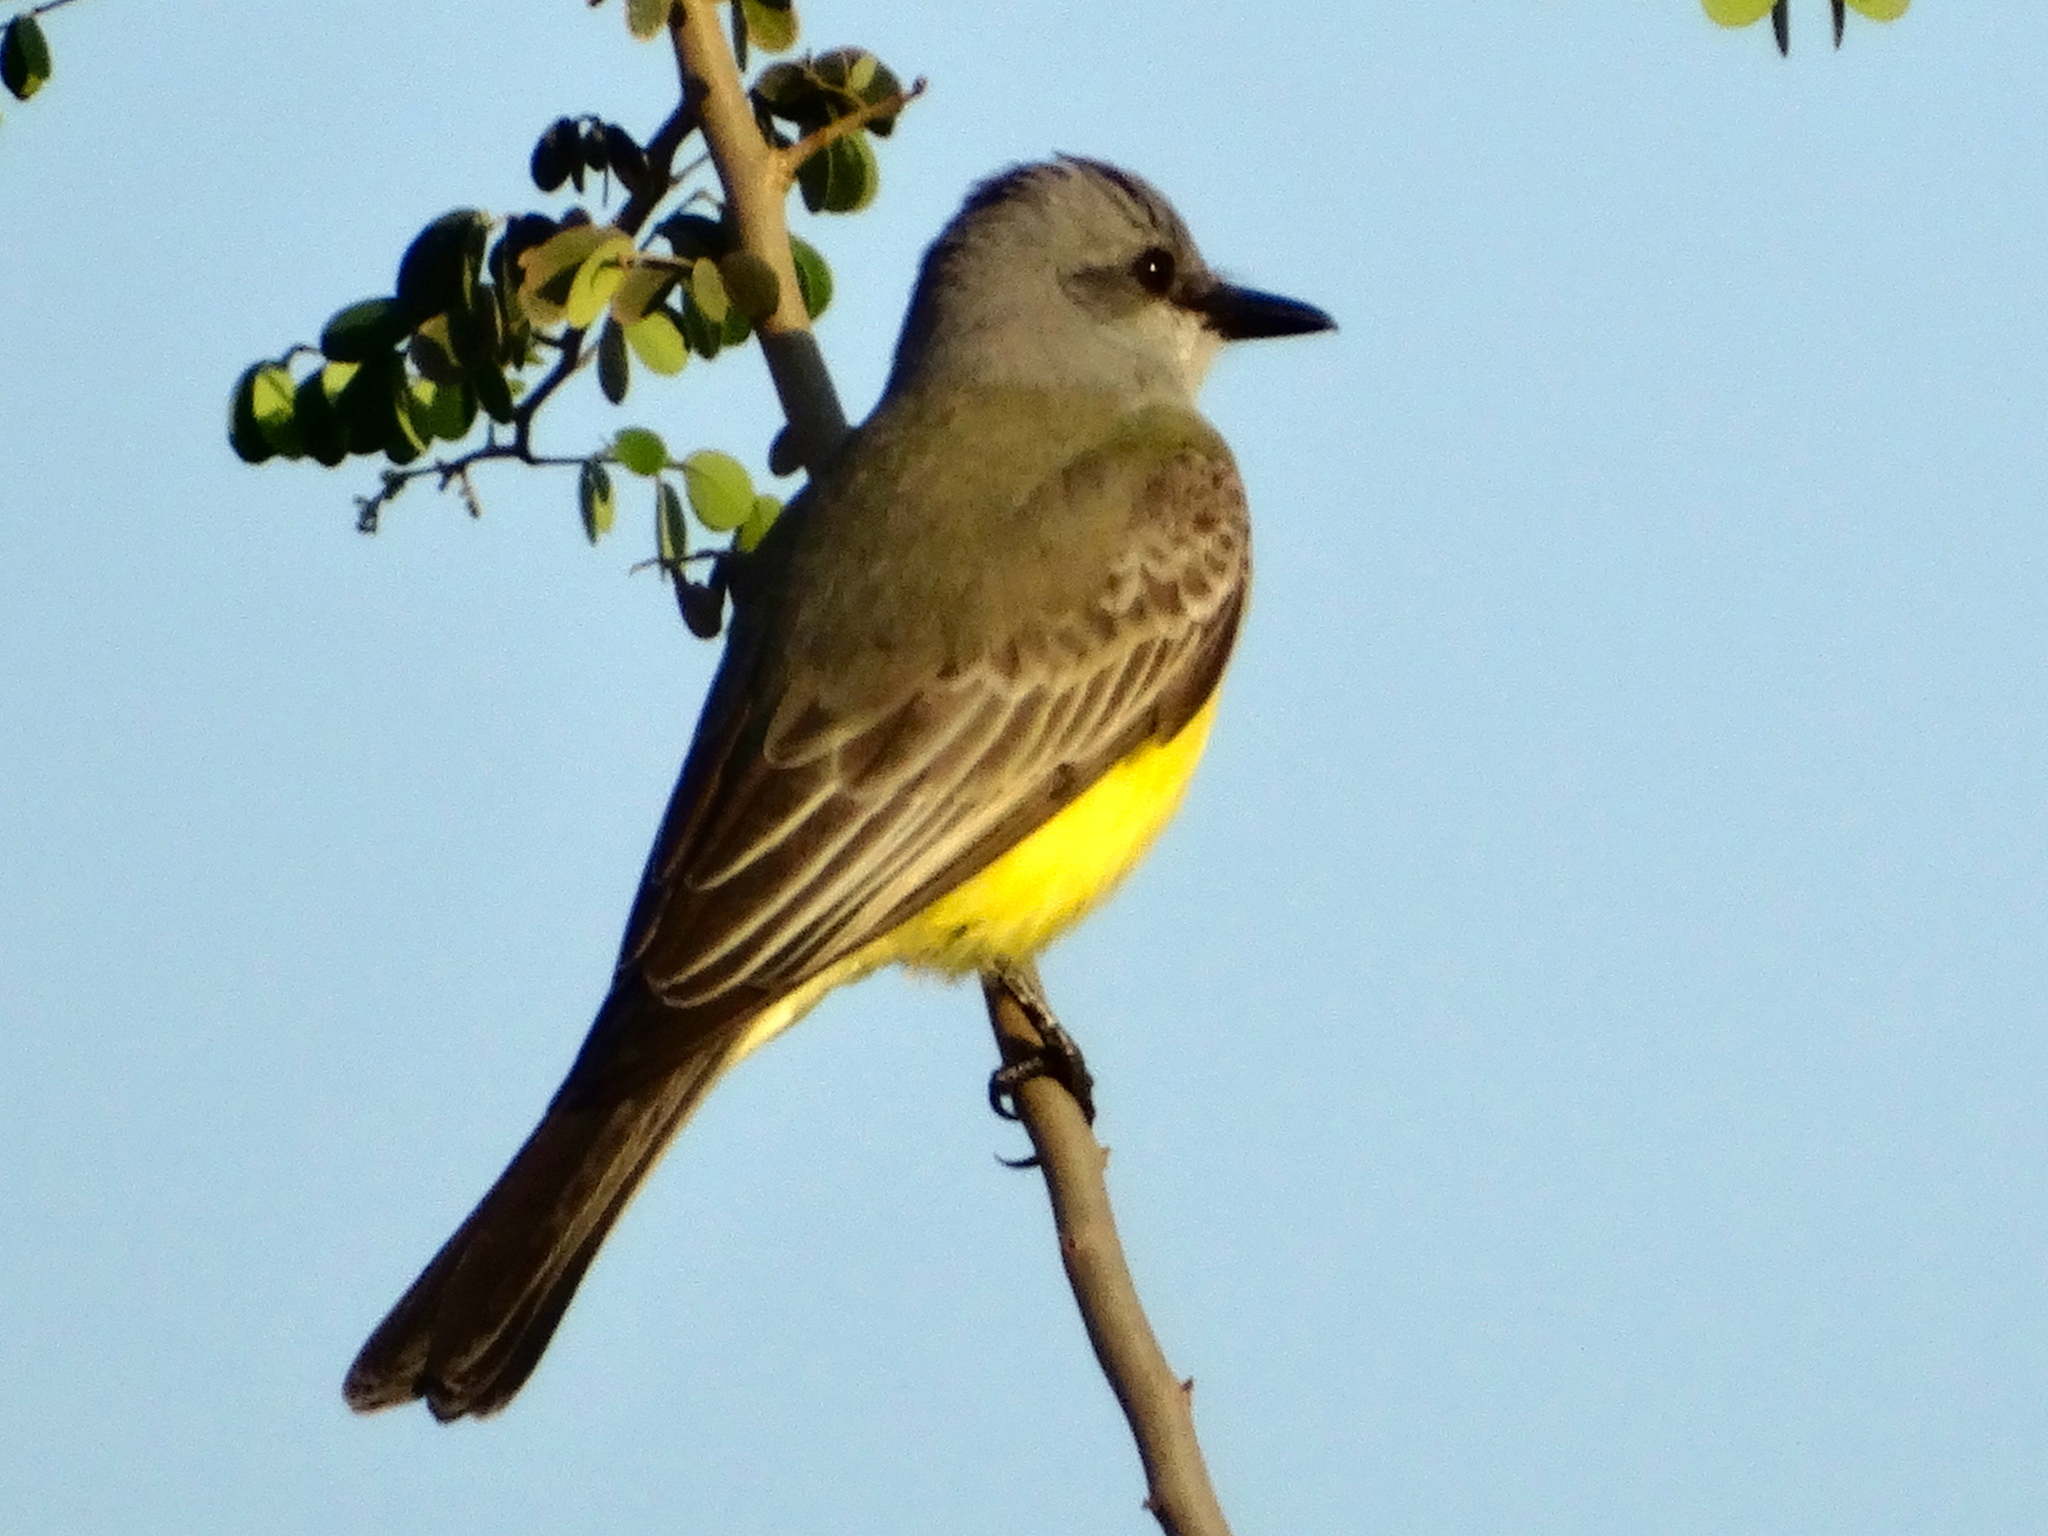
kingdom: Animalia
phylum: Chordata
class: Aves
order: Passeriformes
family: Tyrannidae
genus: Tyrannus
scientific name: Tyrannus melancholicus
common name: Tropical kingbird
